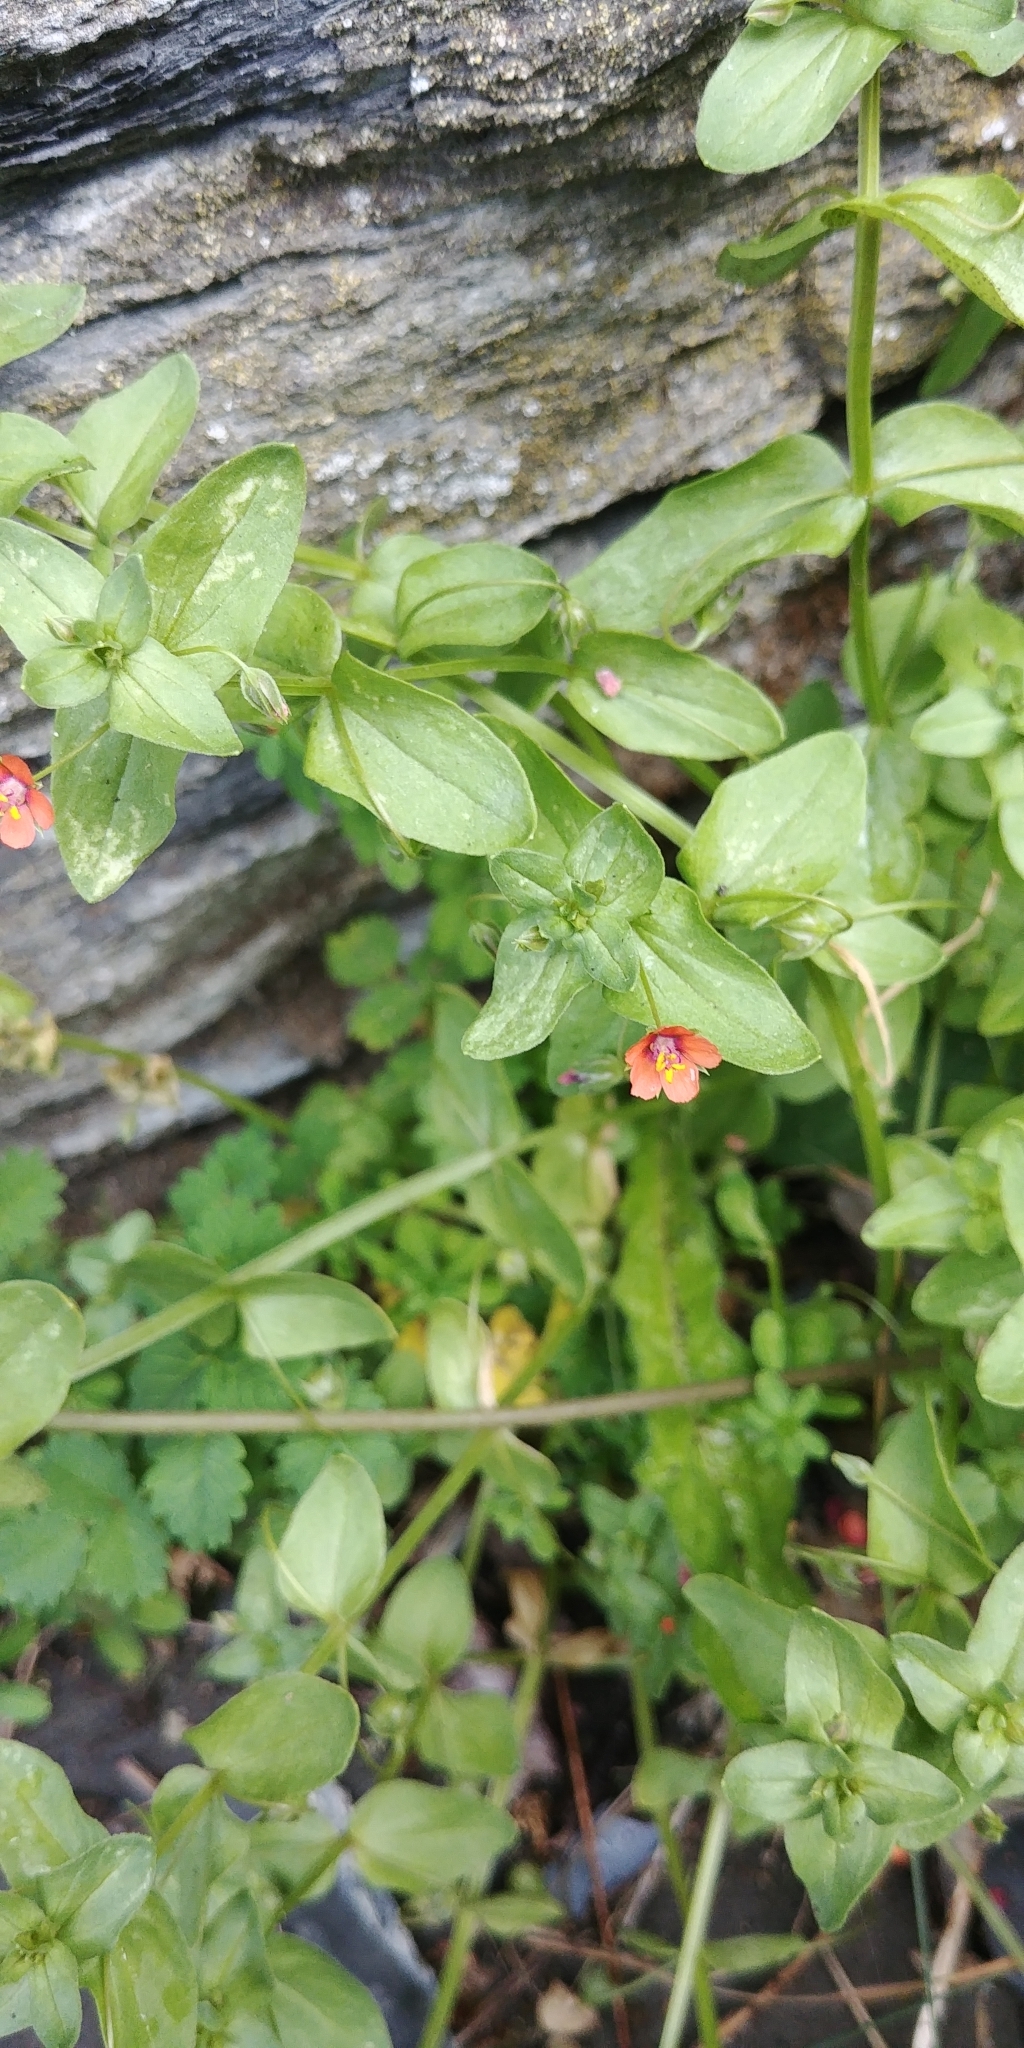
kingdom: Plantae
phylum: Tracheophyta
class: Magnoliopsida
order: Ericales
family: Primulaceae
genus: Lysimachia
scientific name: Lysimachia arvensis
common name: Scarlet pimpernel
